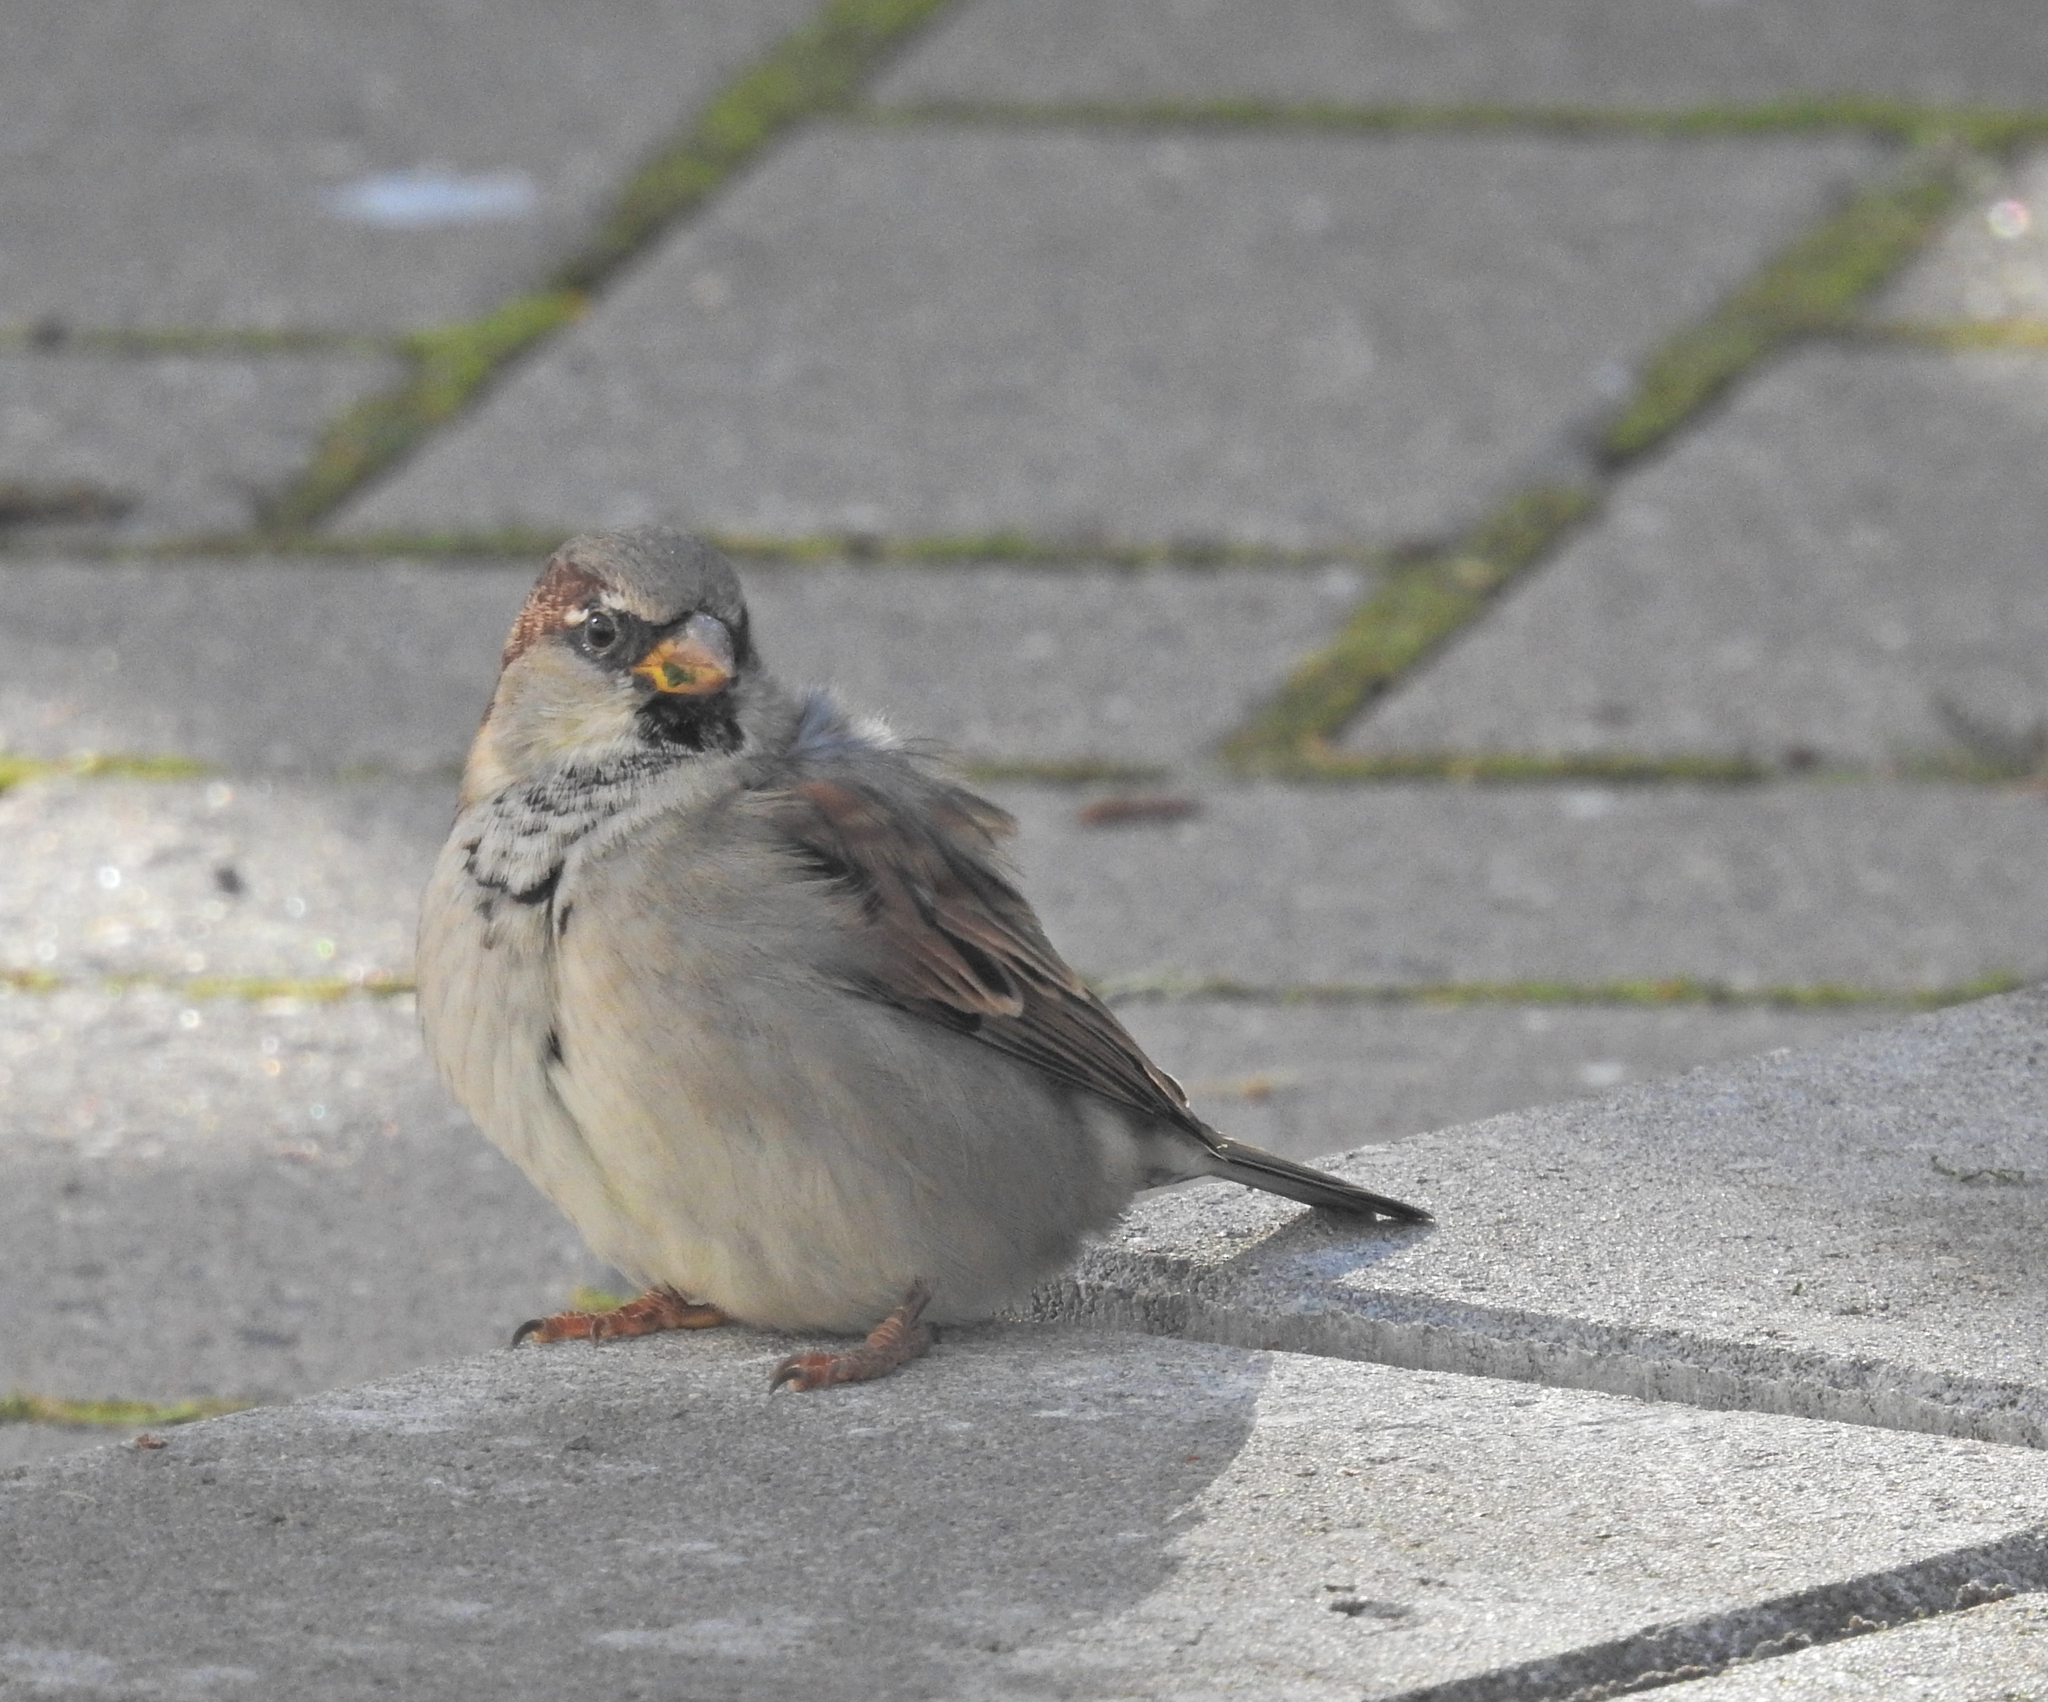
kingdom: Animalia
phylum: Chordata
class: Aves
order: Passeriformes
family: Passeridae
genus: Passer
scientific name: Passer domesticus
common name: House sparrow
